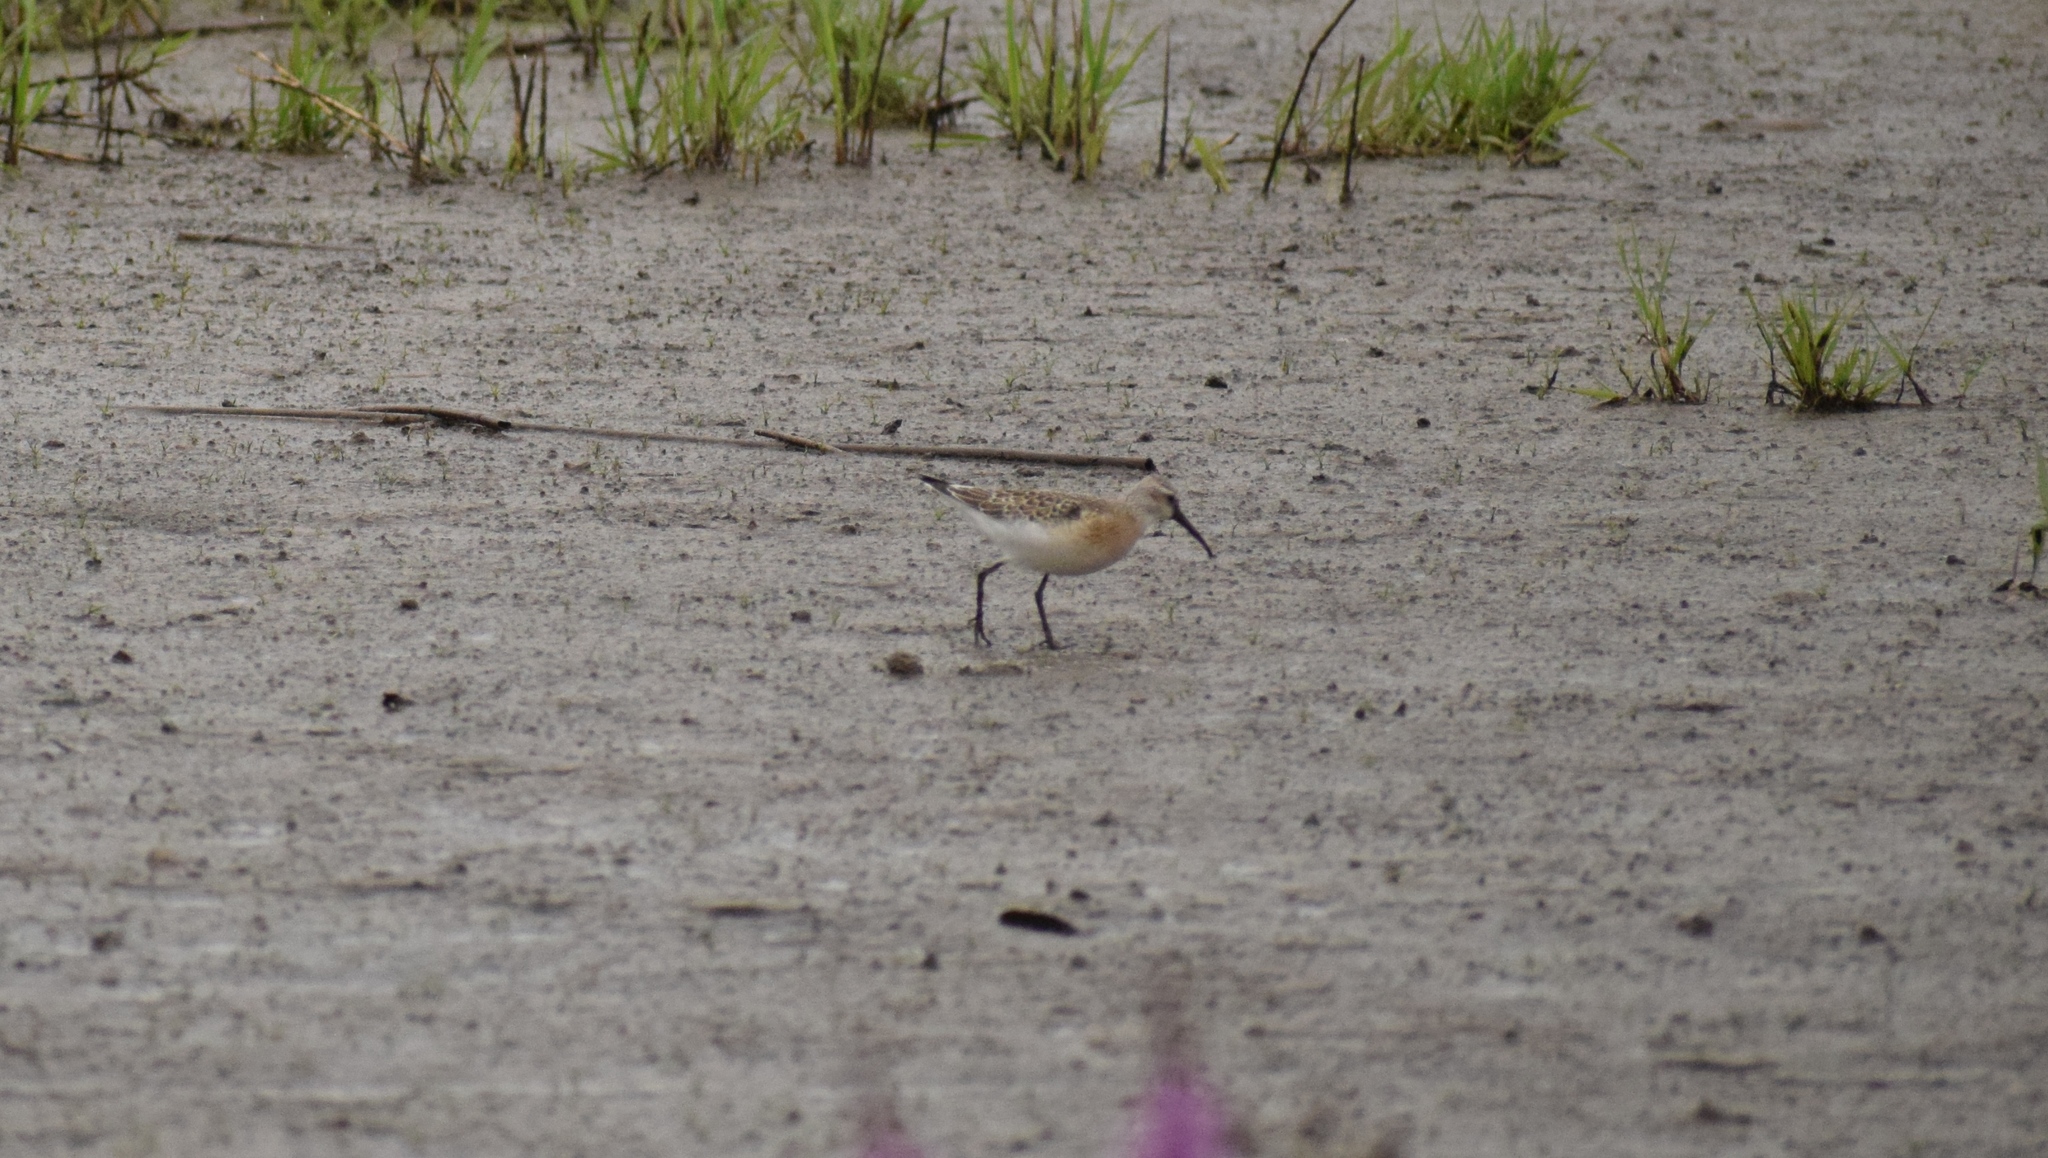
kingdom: Animalia
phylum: Chordata
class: Aves
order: Charadriiformes
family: Scolopacidae
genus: Calidris
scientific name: Calidris ferruginea
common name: Curlew sandpiper
